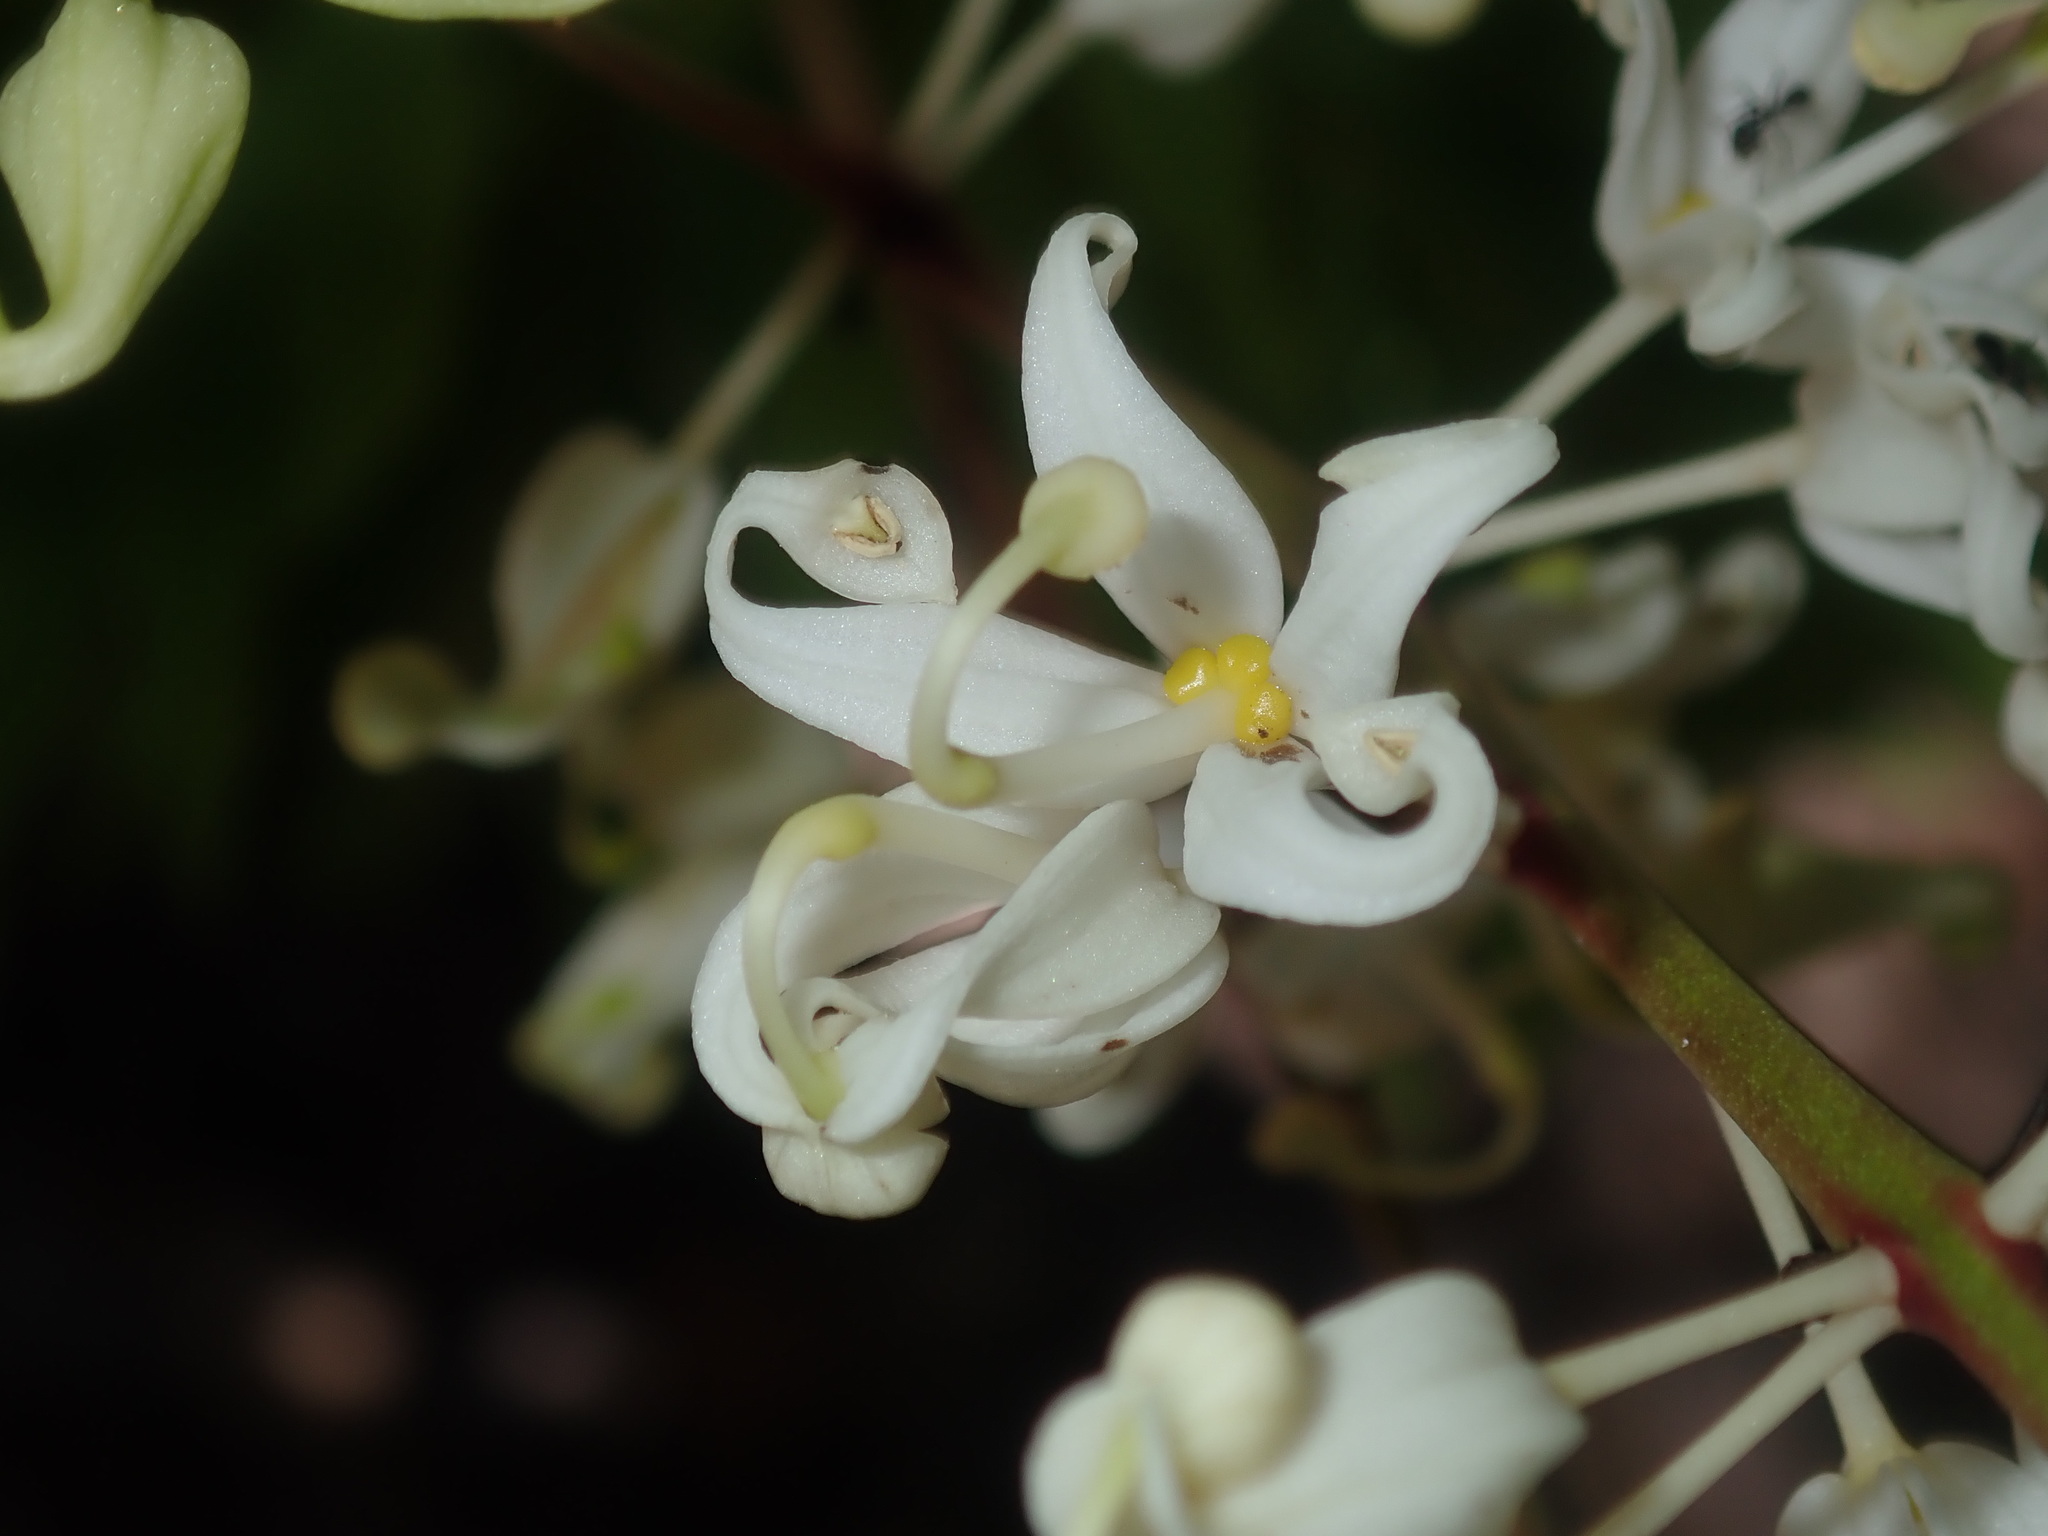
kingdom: Plantae
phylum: Tracheophyta
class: Magnoliopsida
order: Proteales
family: Proteaceae
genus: Lomatia
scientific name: Lomatia silaifolia
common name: Crinklebush
